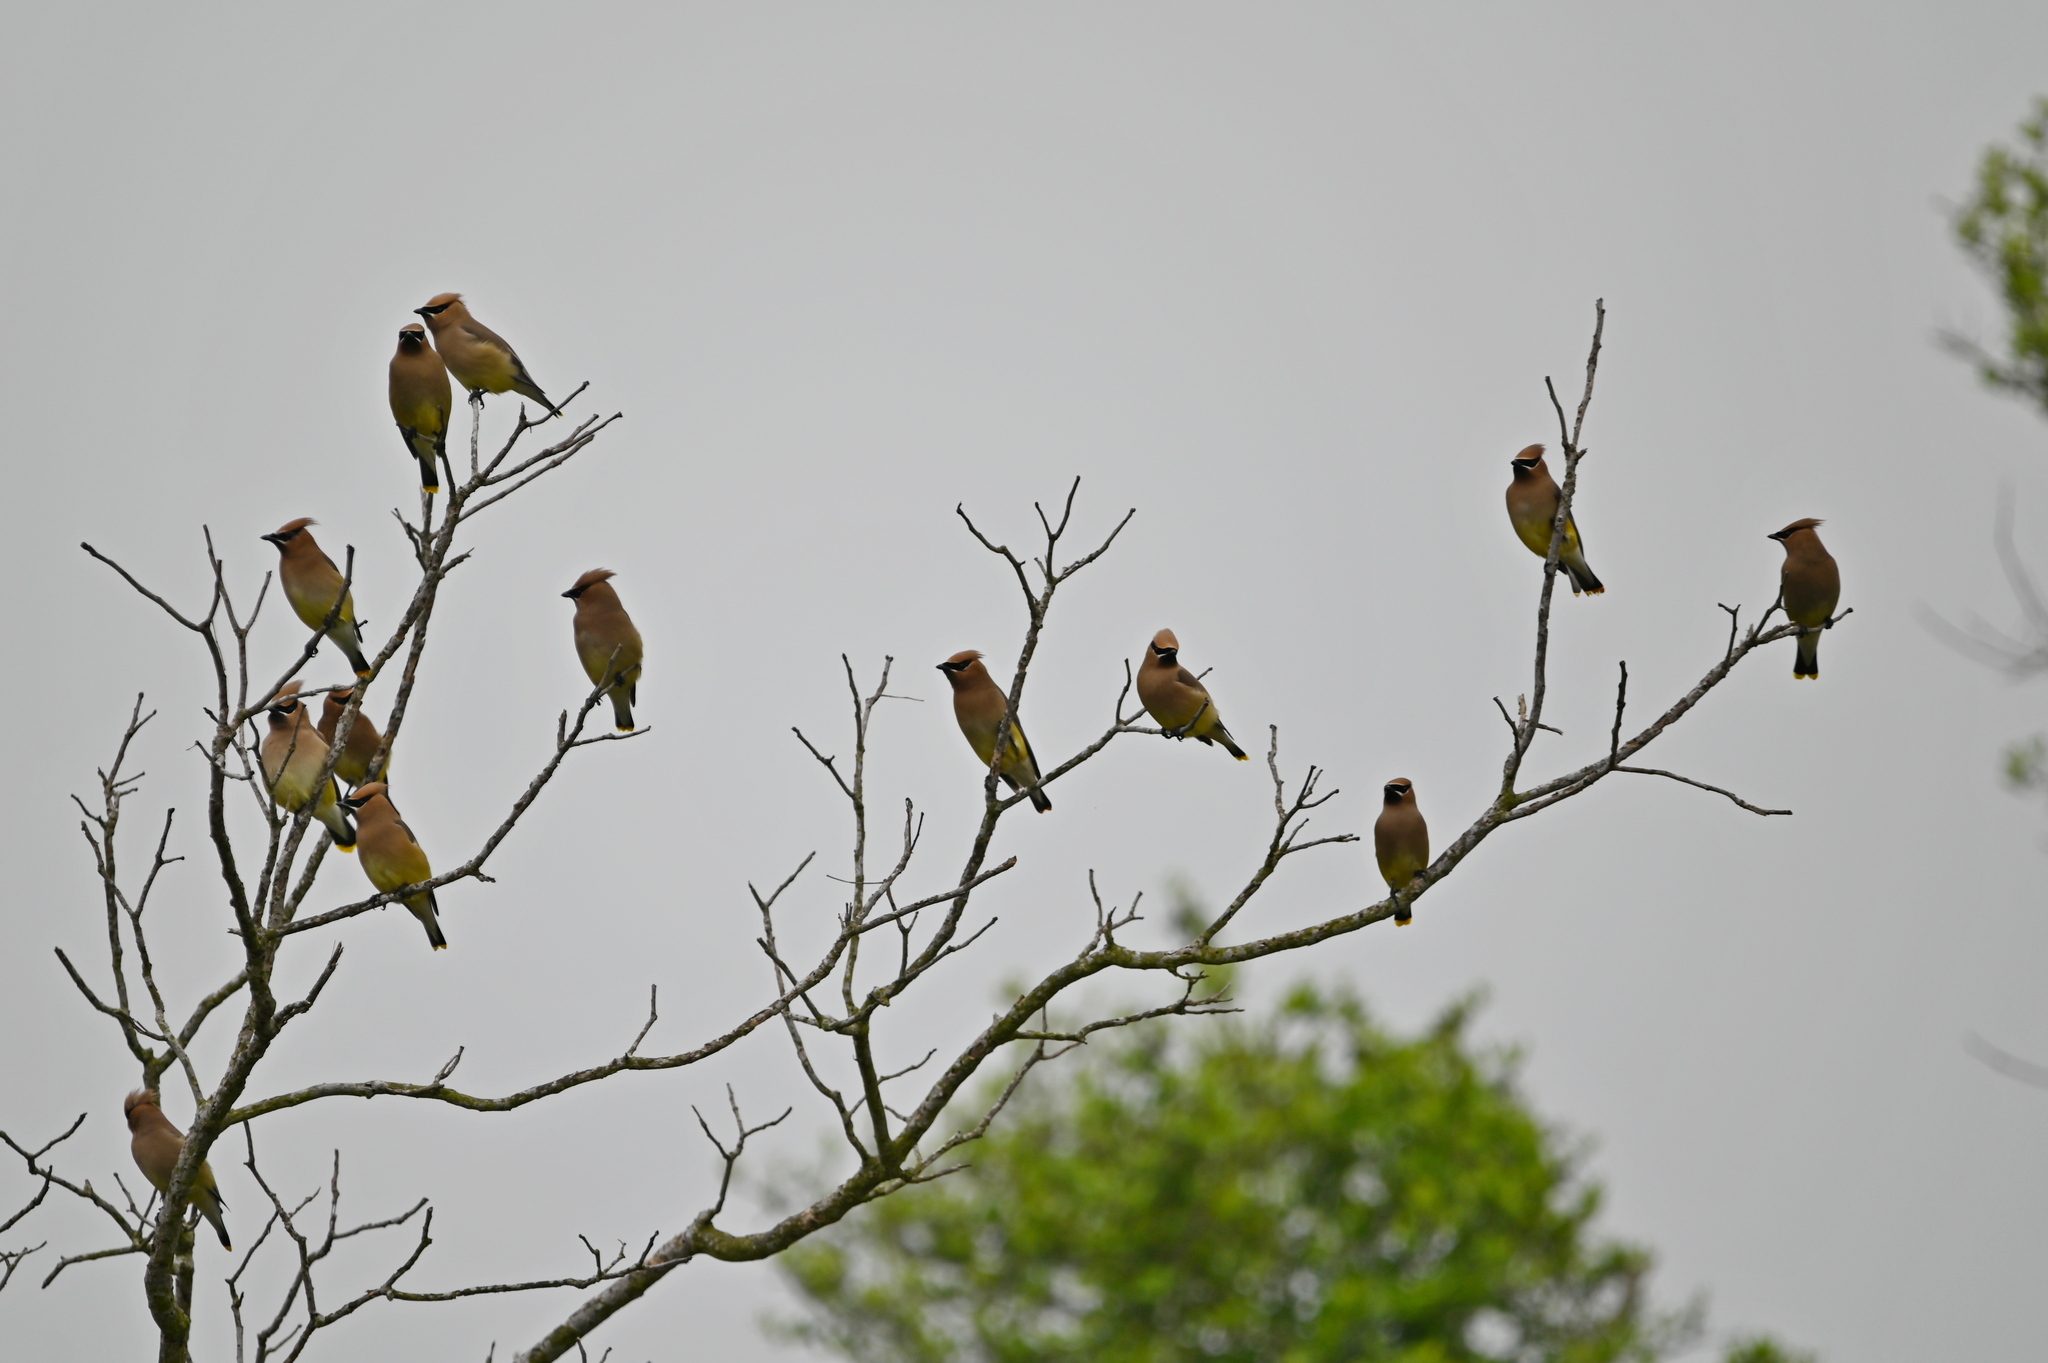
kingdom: Animalia
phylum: Chordata
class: Aves
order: Passeriformes
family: Bombycillidae
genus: Bombycilla
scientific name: Bombycilla cedrorum
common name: Cedar waxwing
